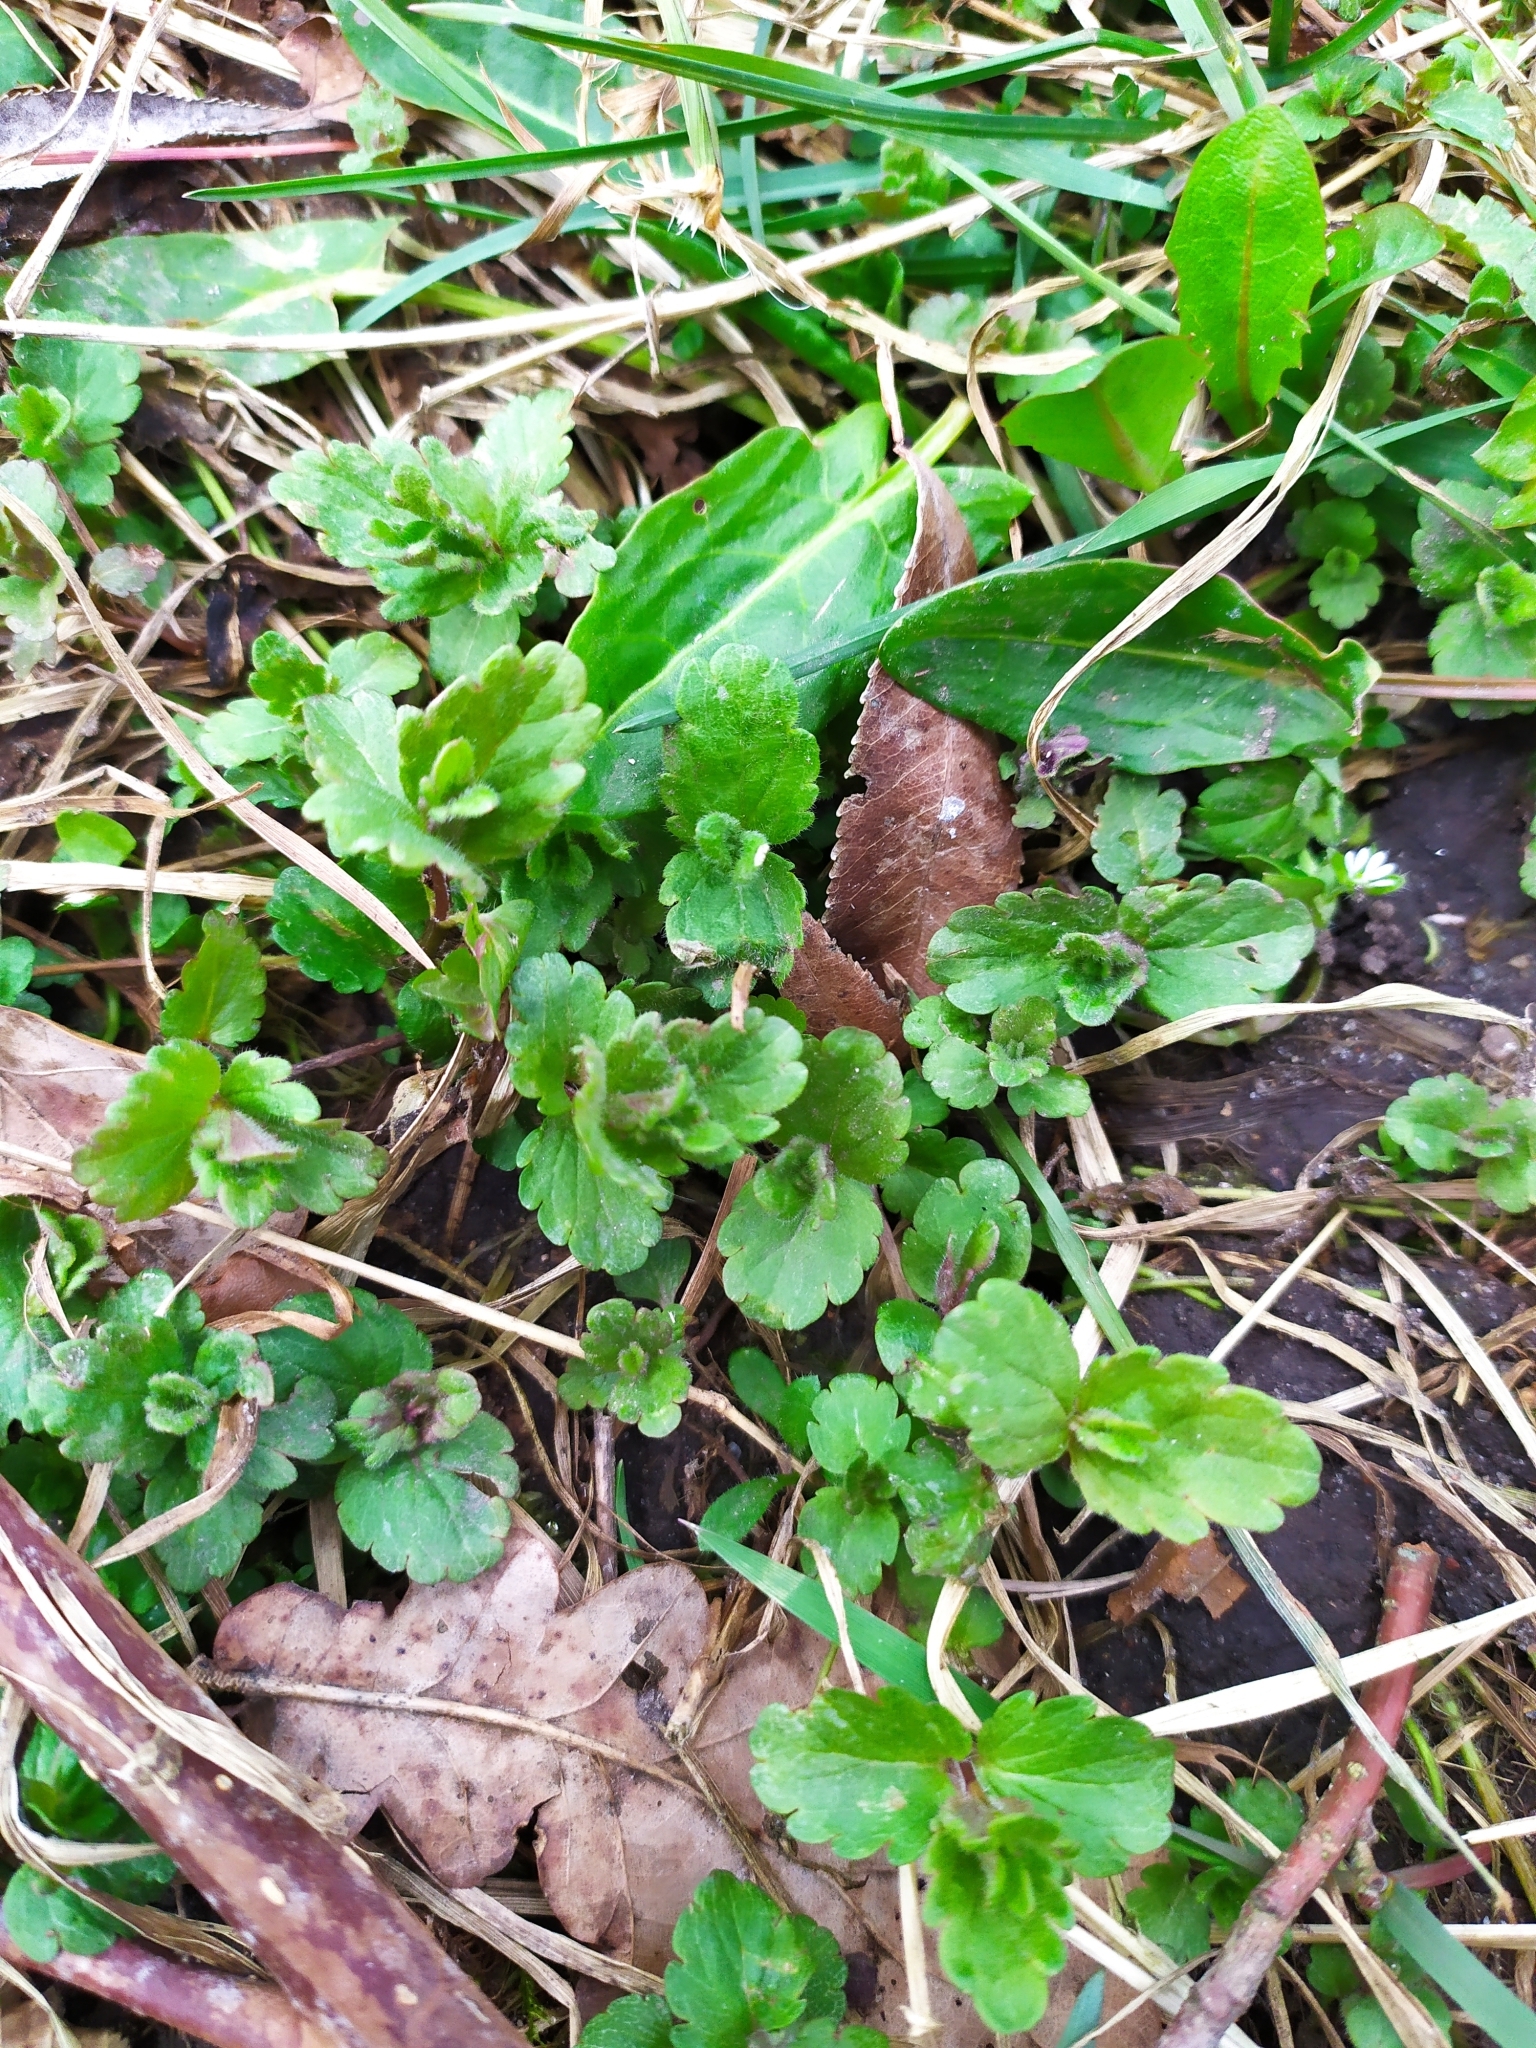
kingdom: Plantae
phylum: Tracheophyta
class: Magnoliopsida
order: Lamiales
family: Plantaginaceae
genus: Veronica
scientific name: Veronica chamaedrys
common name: Germander speedwell
